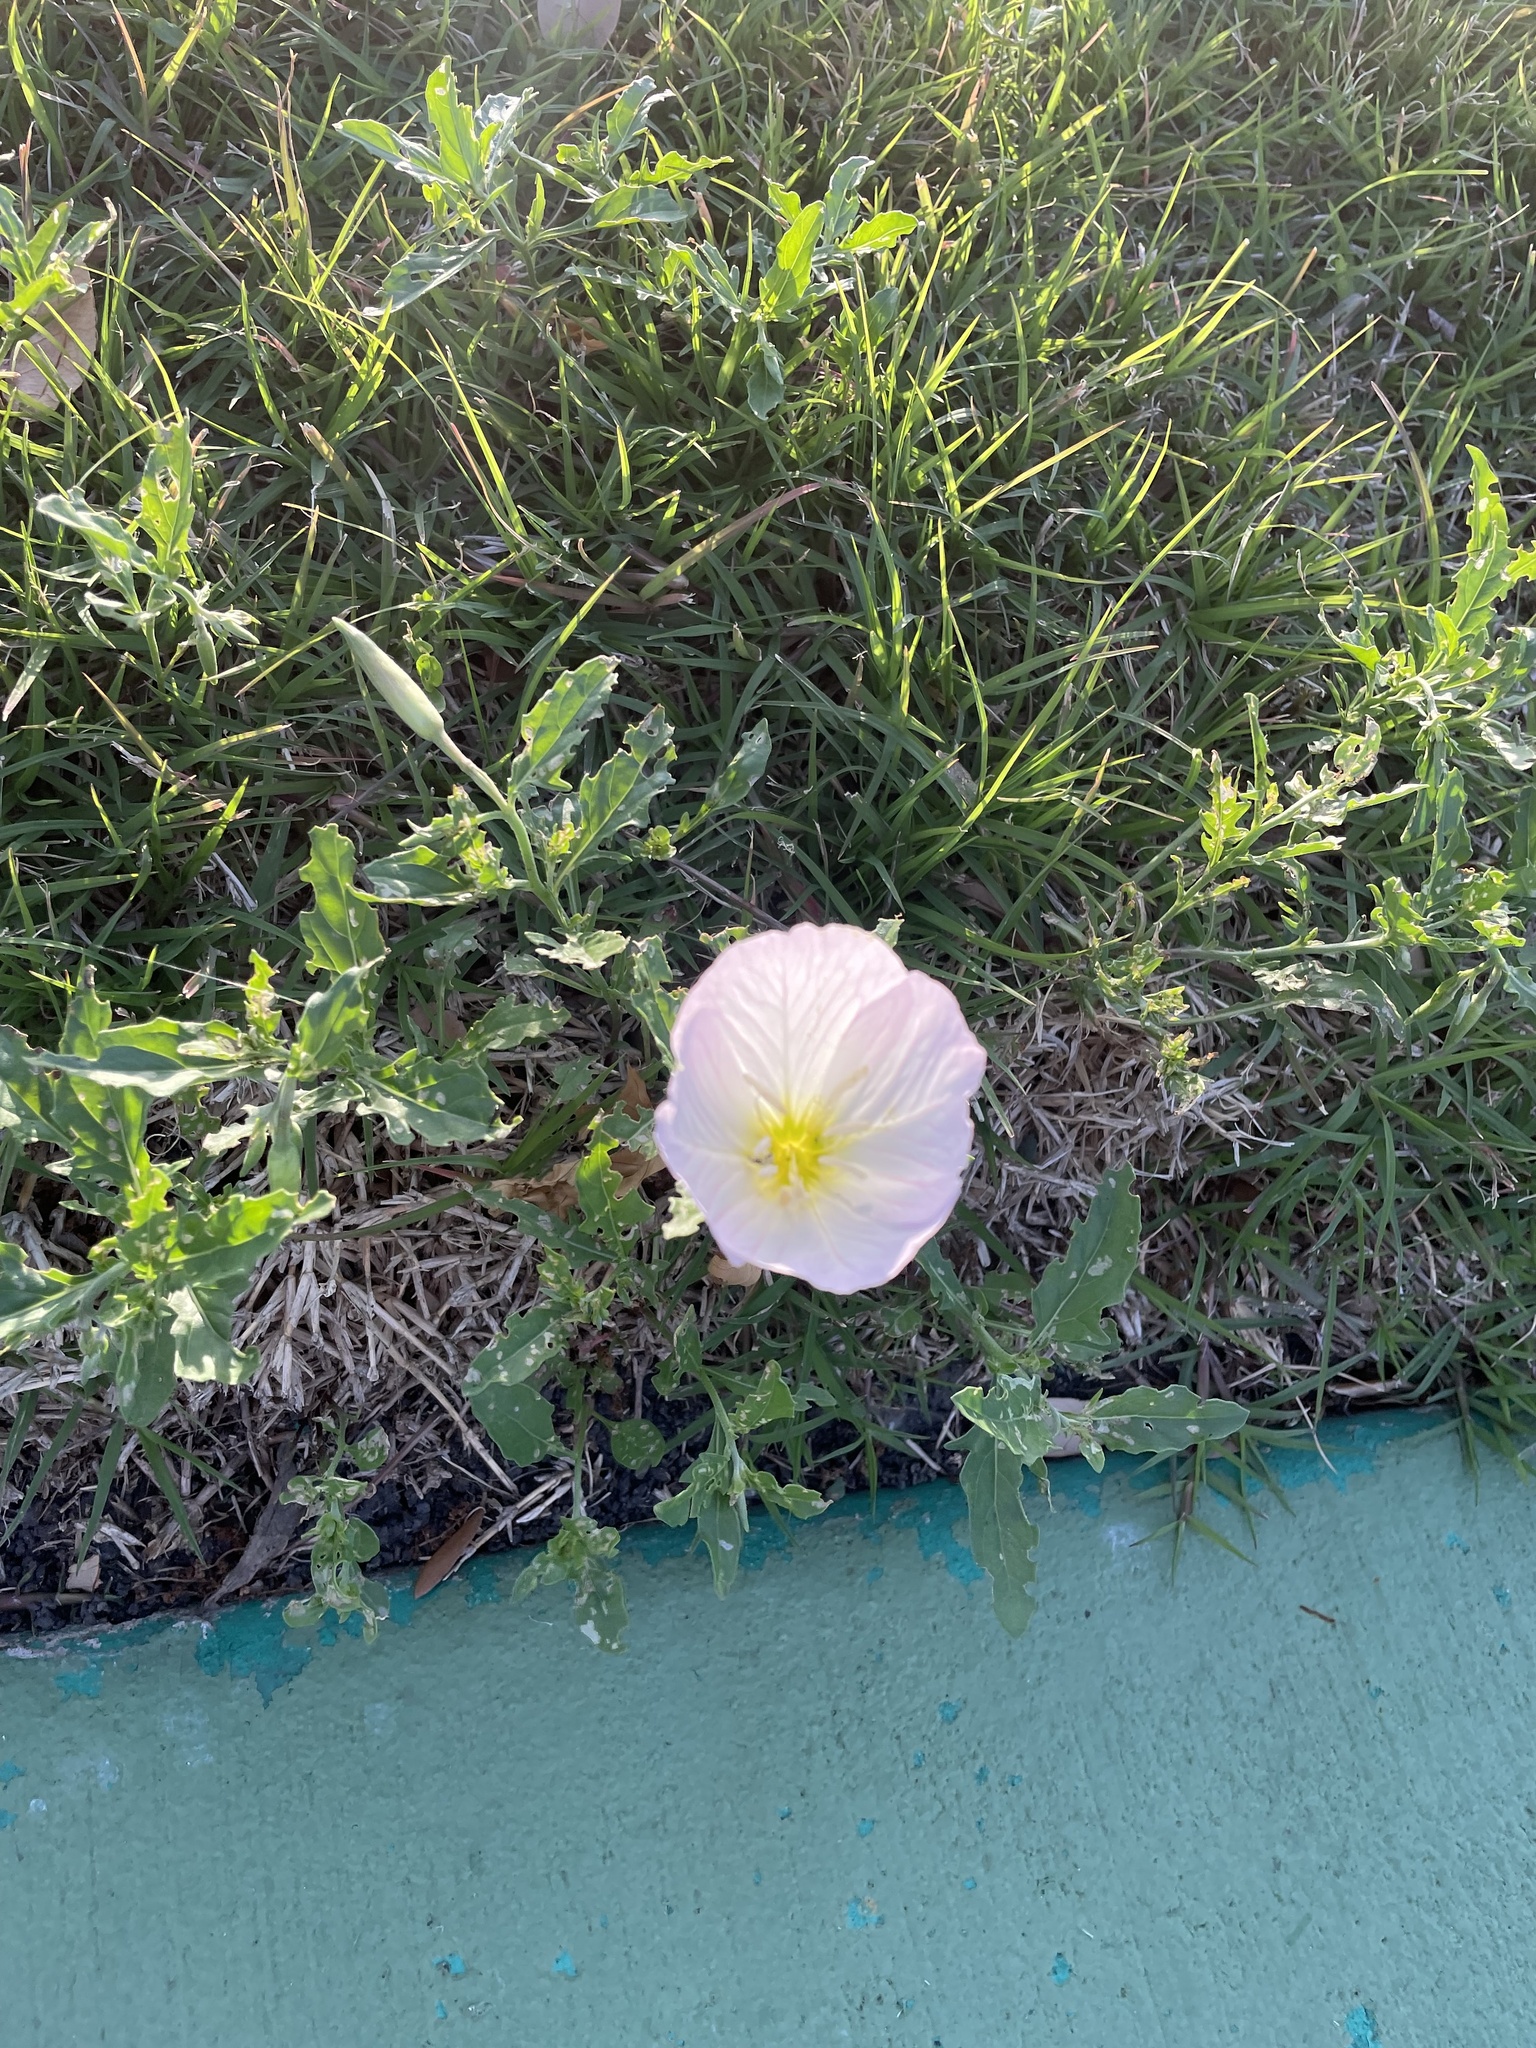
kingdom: Plantae
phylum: Tracheophyta
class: Magnoliopsida
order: Myrtales
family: Onagraceae
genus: Oenothera
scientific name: Oenothera speciosa
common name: White evening-primrose
